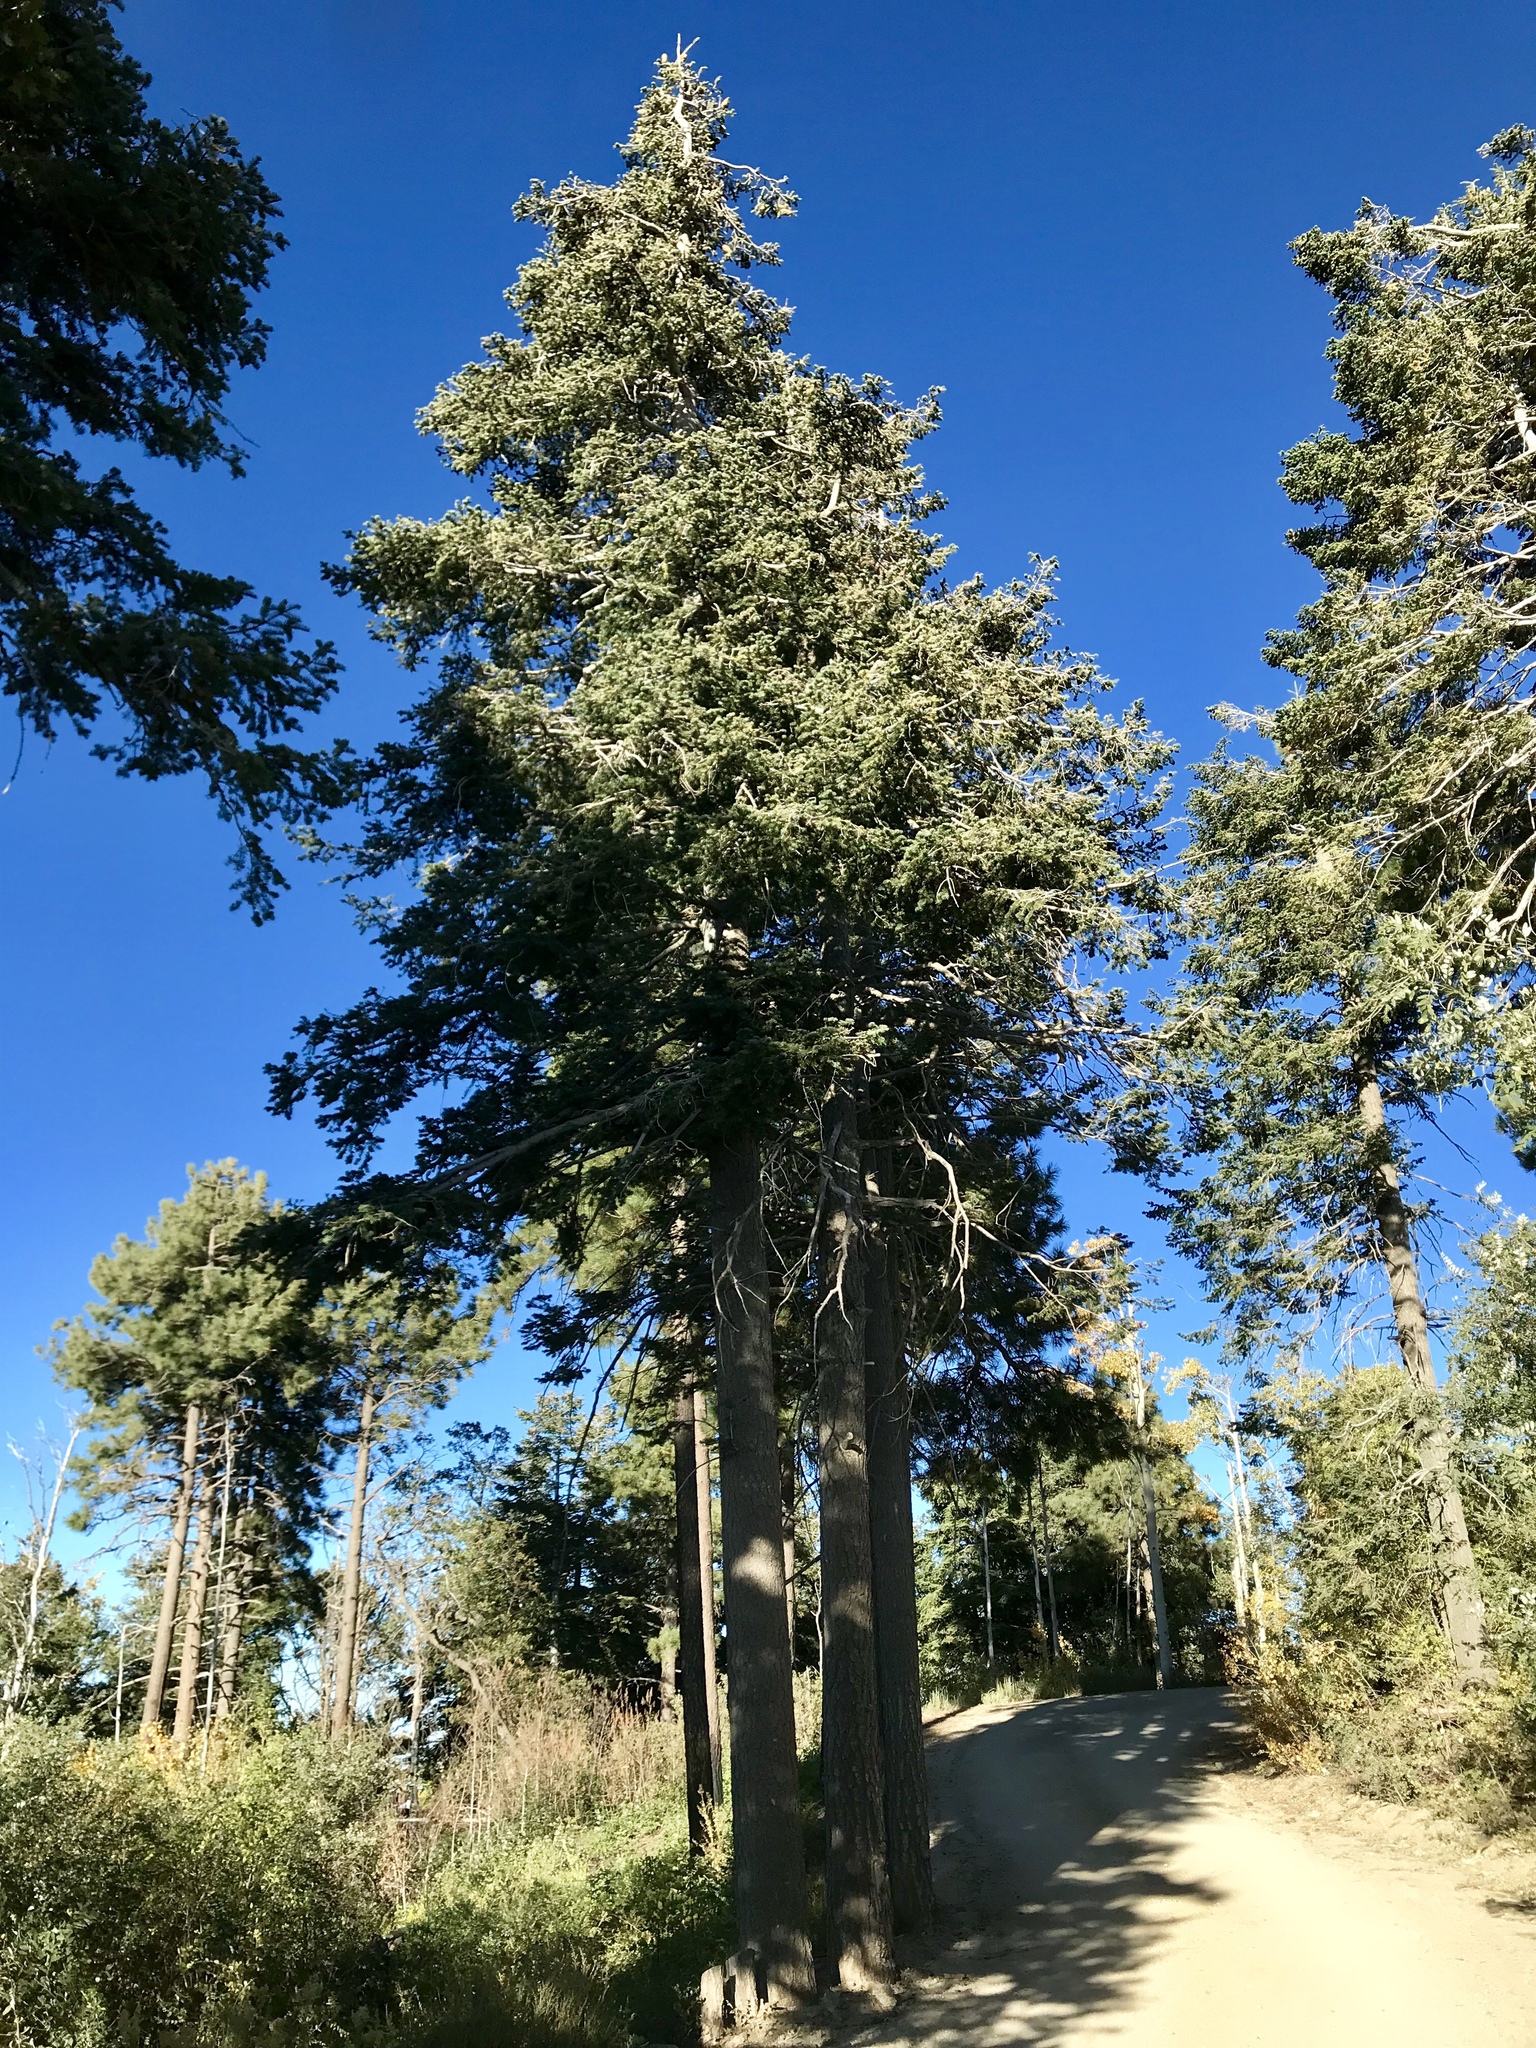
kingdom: Plantae
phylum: Tracheophyta
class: Pinopsida
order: Pinales
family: Pinaceae
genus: Abies
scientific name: Abies concolor
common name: Colorado fir
